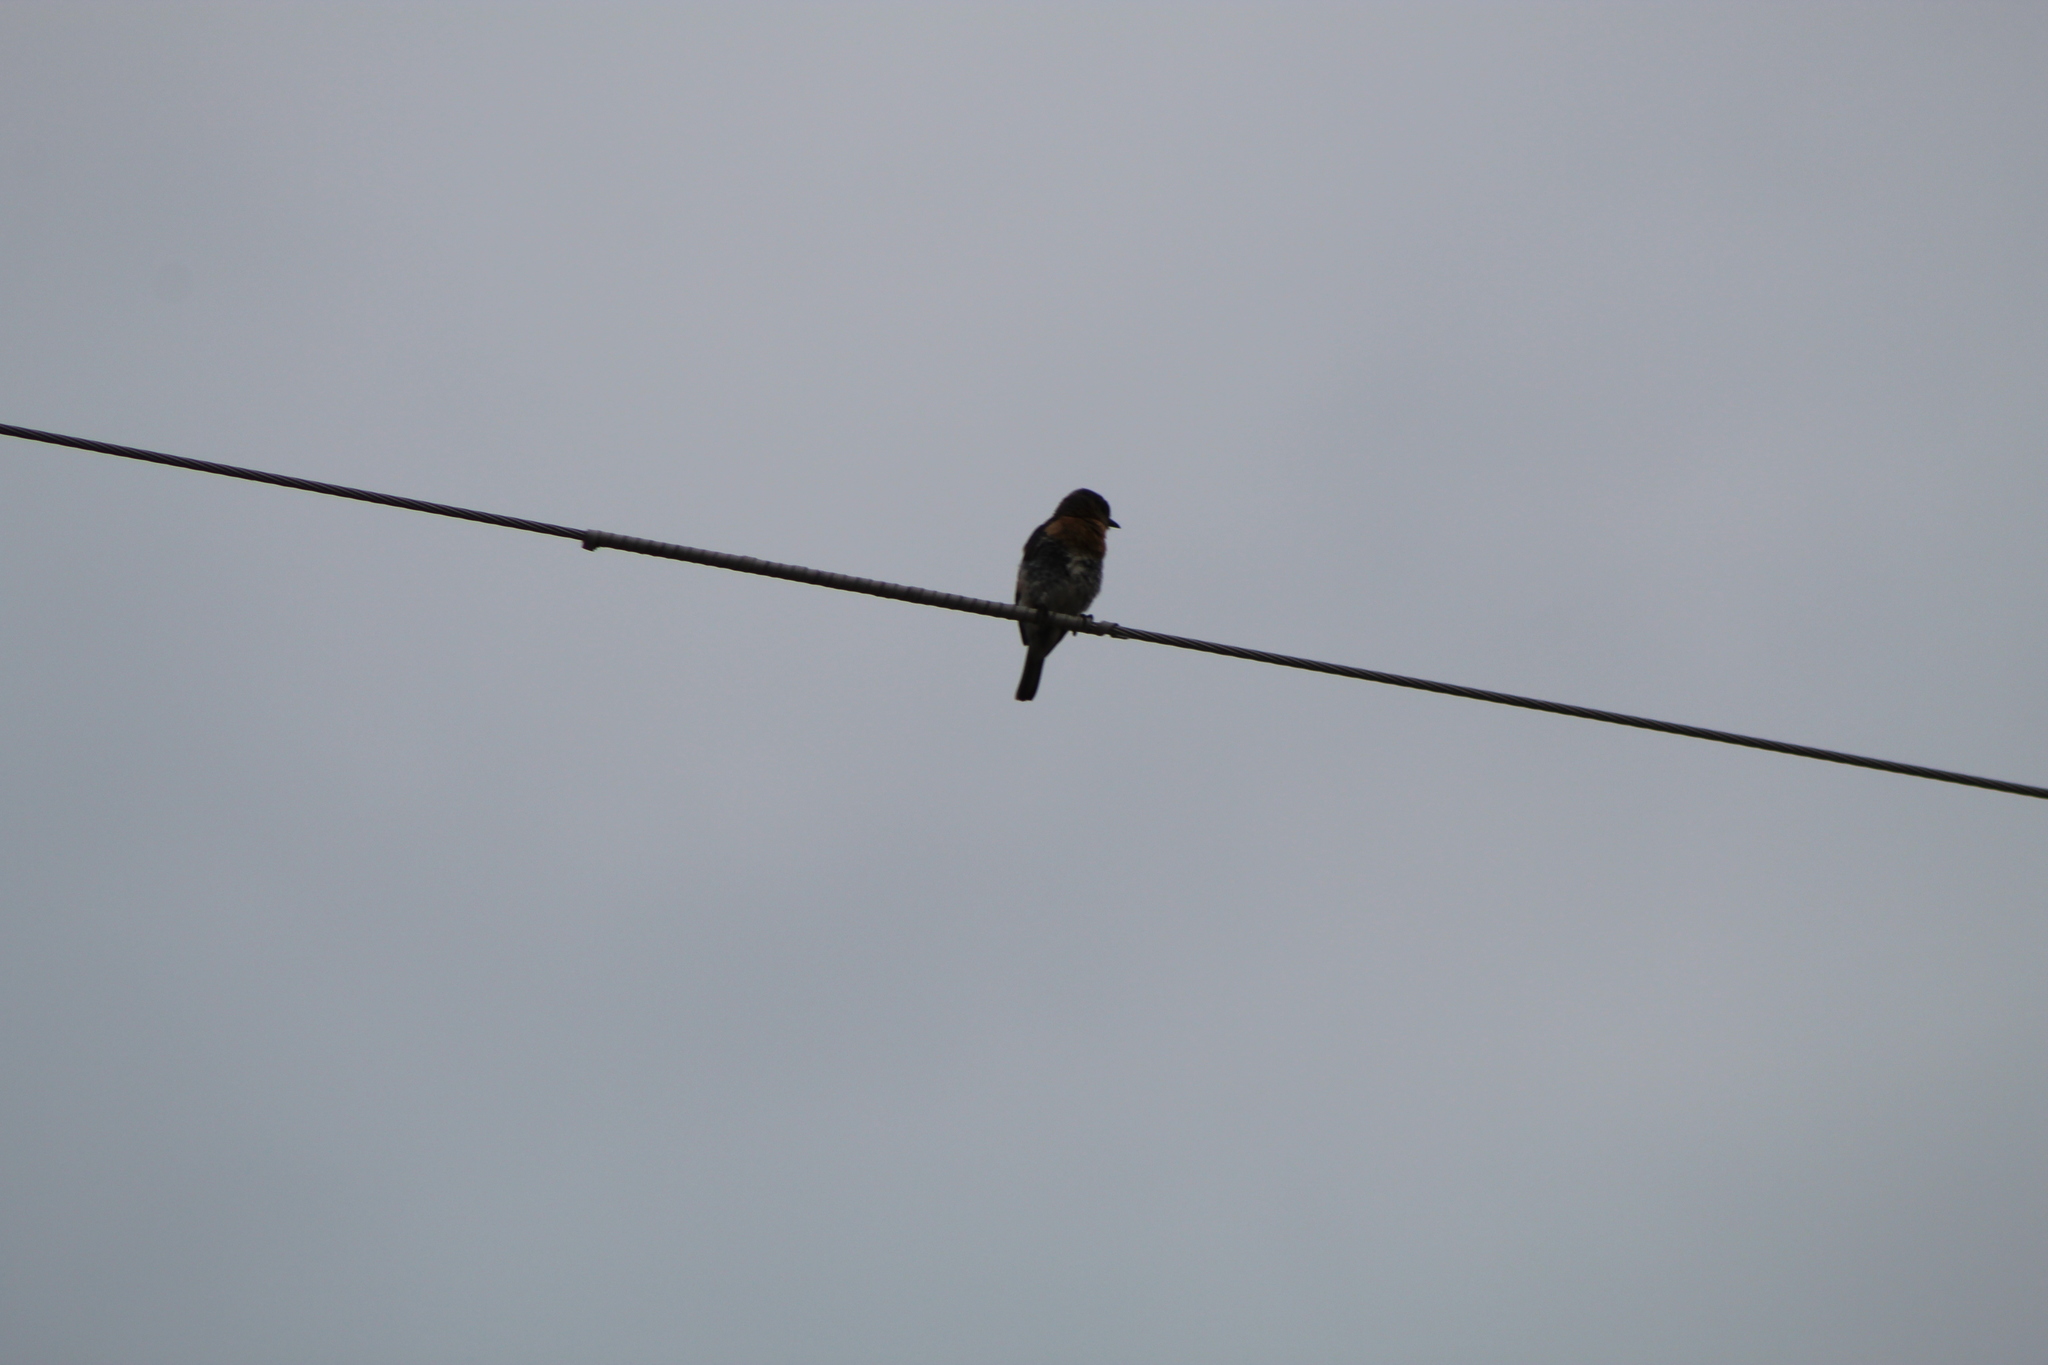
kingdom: Animalia
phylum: Chordata
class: Aves
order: Passeriformes
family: Turdidae
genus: Sialia
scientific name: Sialia sialis
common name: Eastern bluebird
